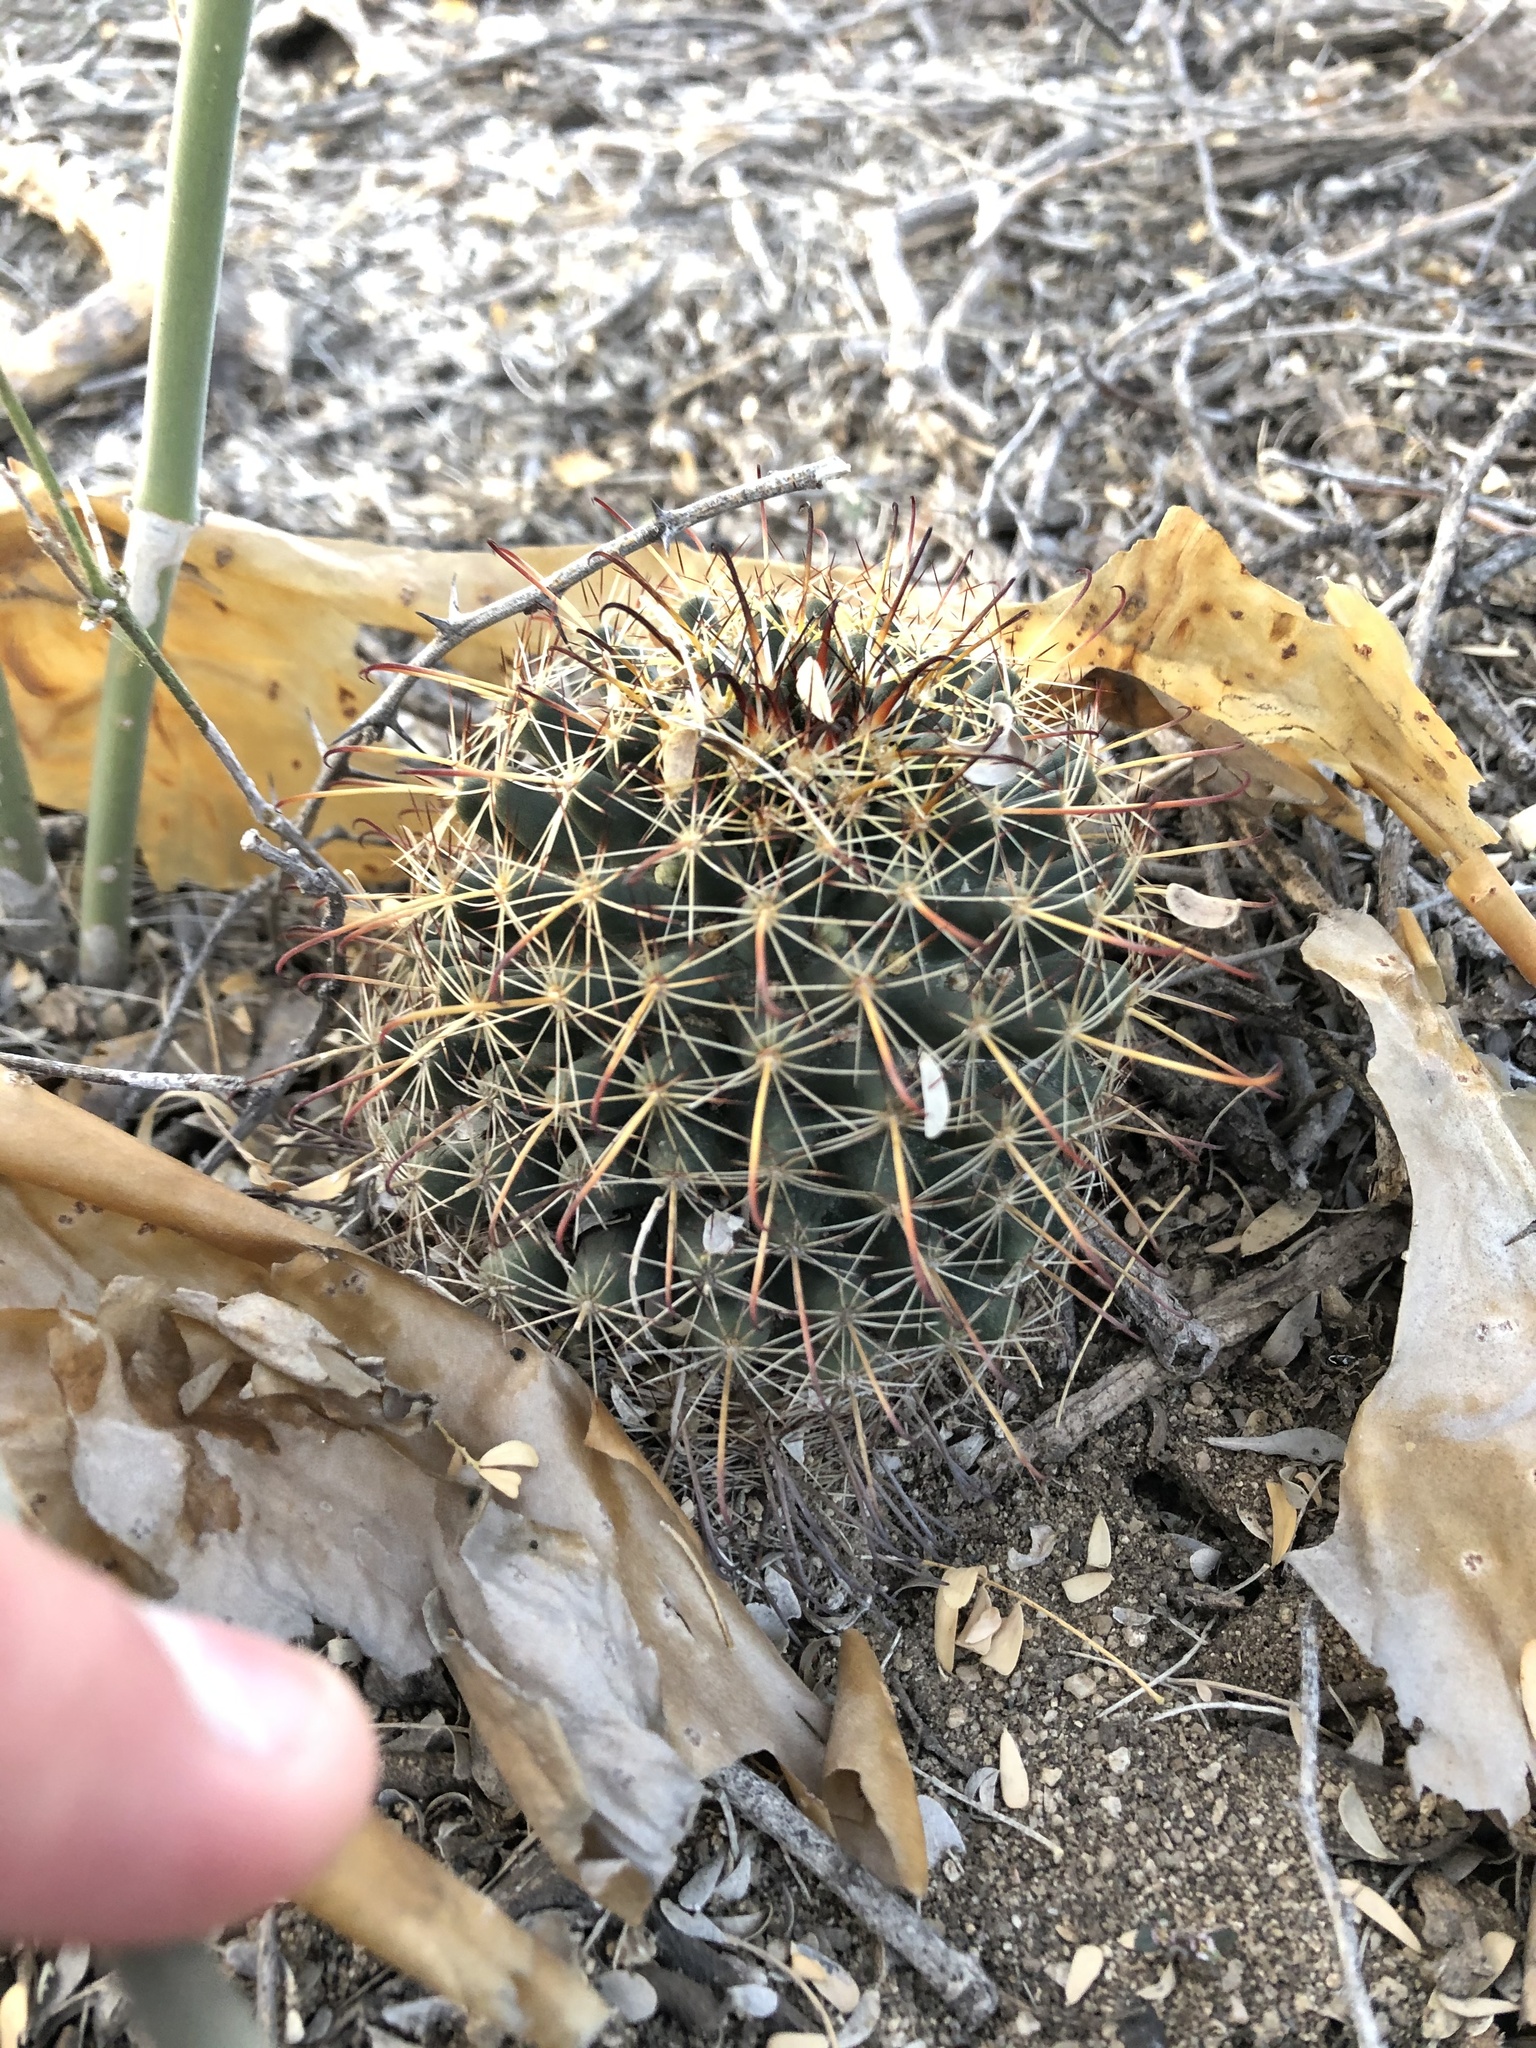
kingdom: Plantae
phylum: Tracheophyta
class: Magnoliopsida
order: Caryophyllales
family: Cactaceae
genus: Cochemiea
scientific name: Cochemiea mainiae
